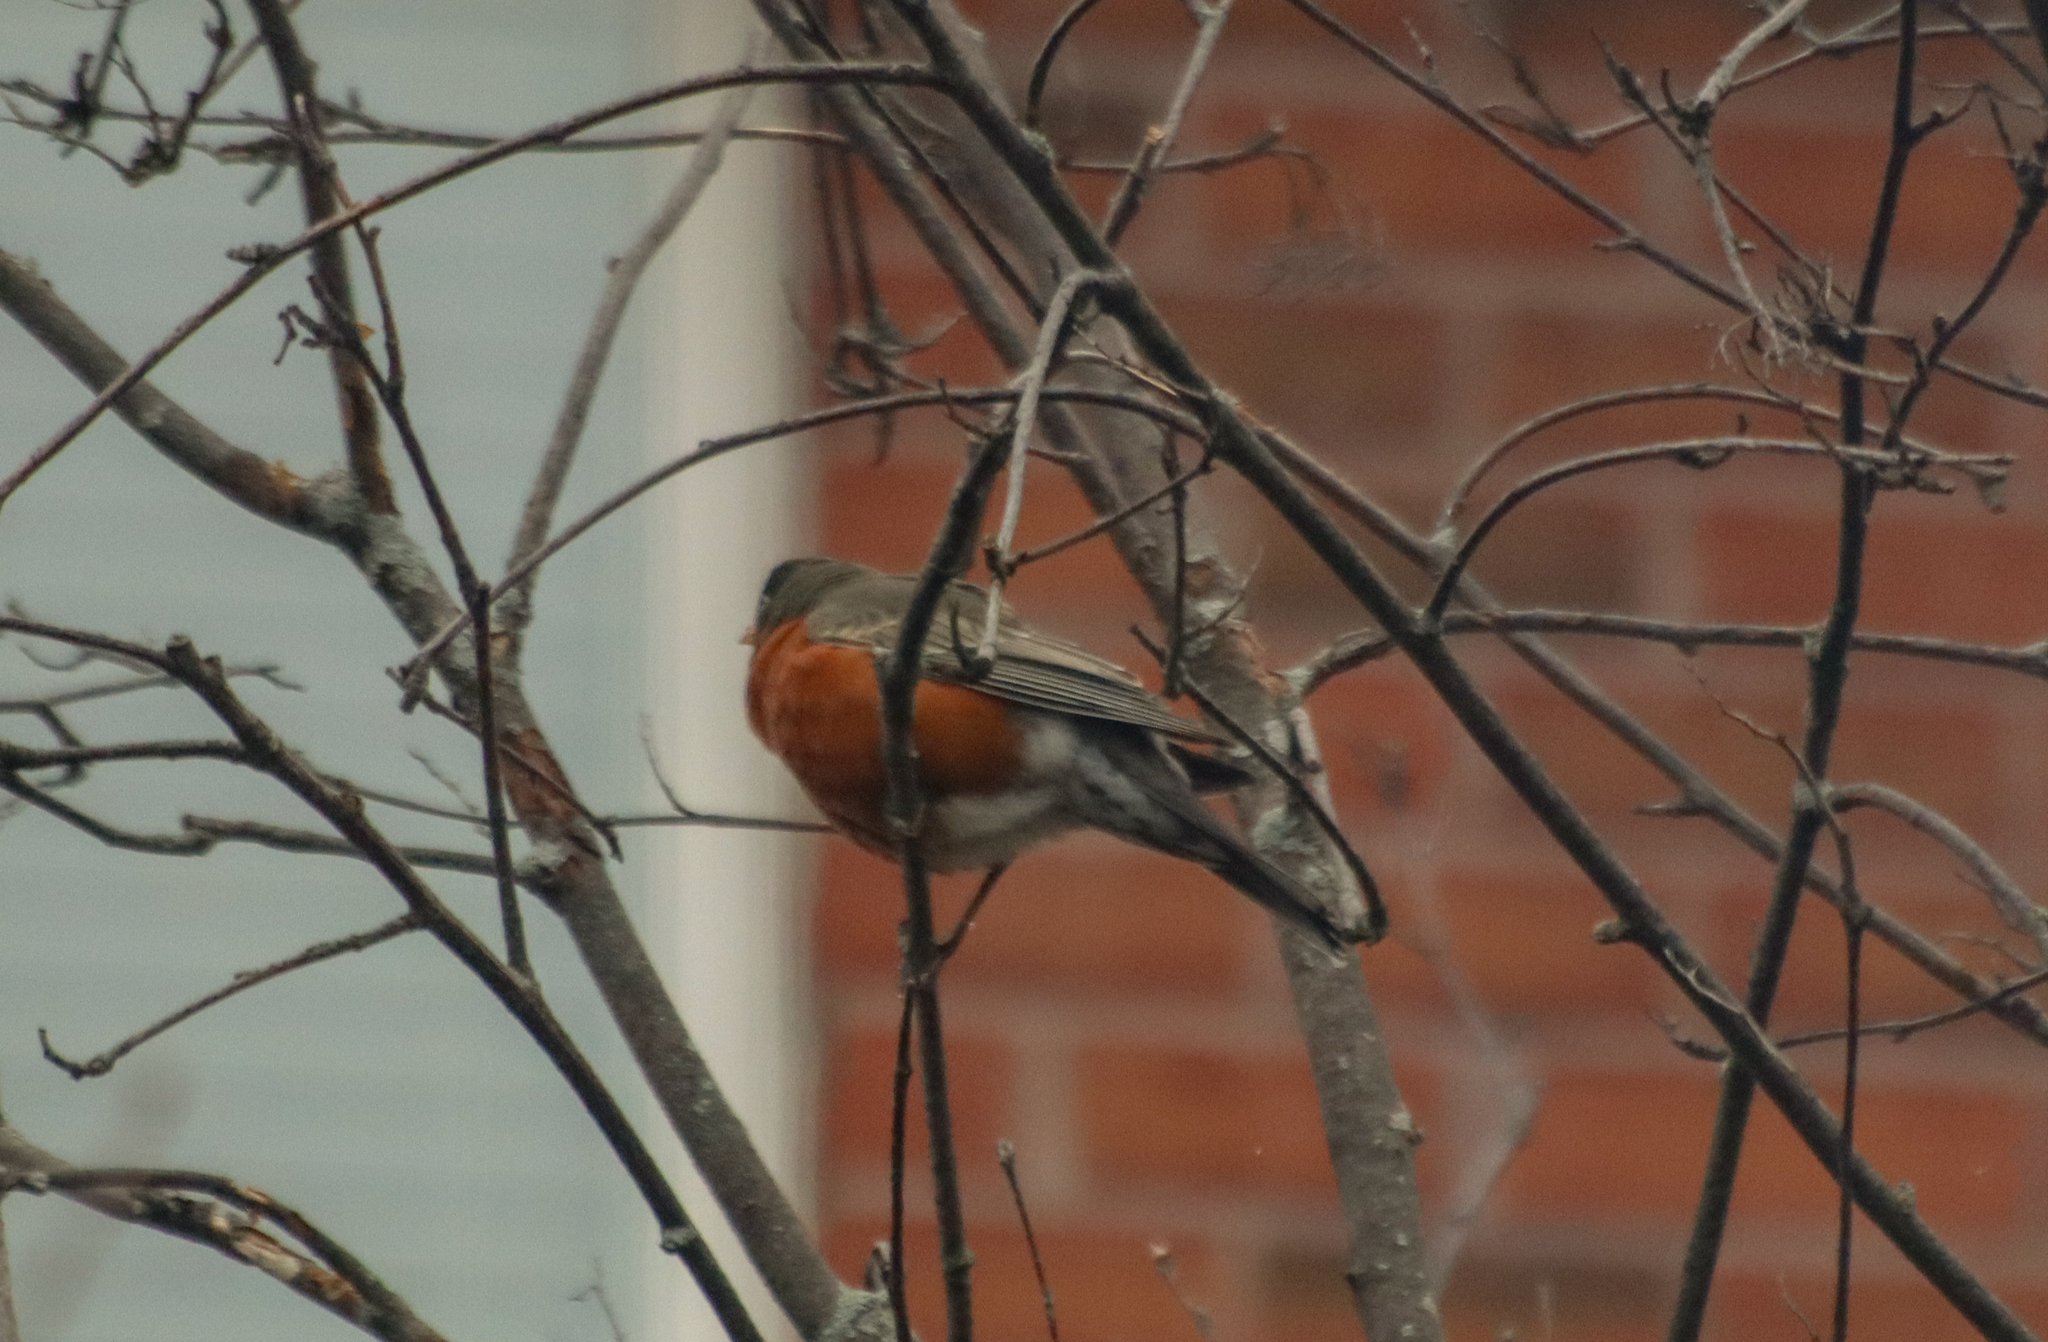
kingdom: Animalia
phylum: Chordata
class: Aves
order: Passeriformes
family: Turdidae
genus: Turdus
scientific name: Turdus migratorius
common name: American robin
